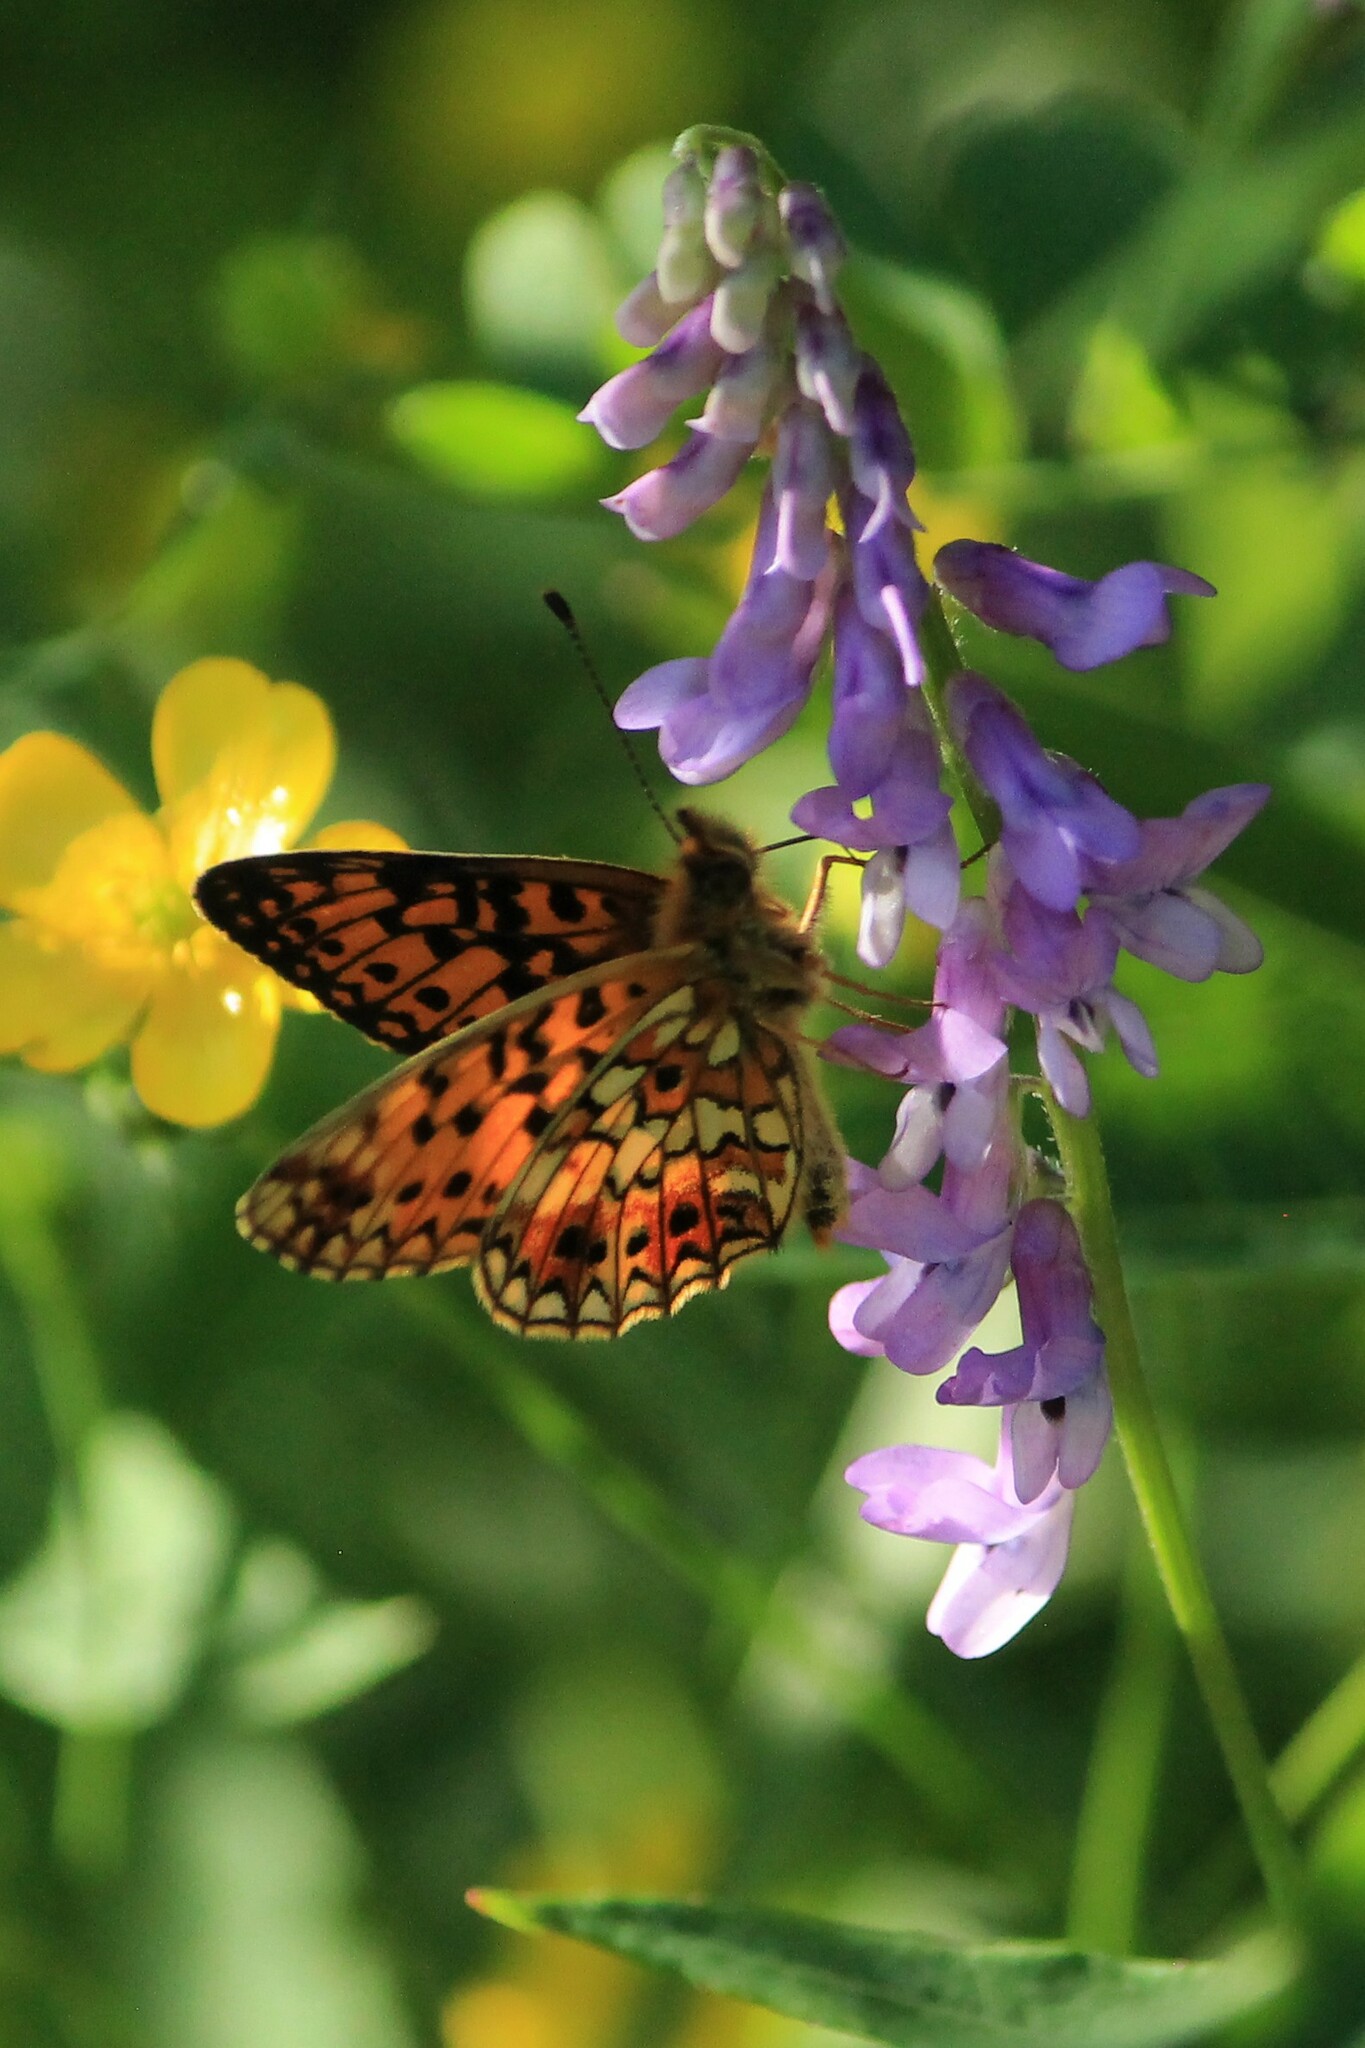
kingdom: Animalia
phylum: Arthropoda
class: Insecta
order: Lepidoptera
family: Nymphalidae
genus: Boloria
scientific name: Boloria selene
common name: Small pearl-bordered fritillary
